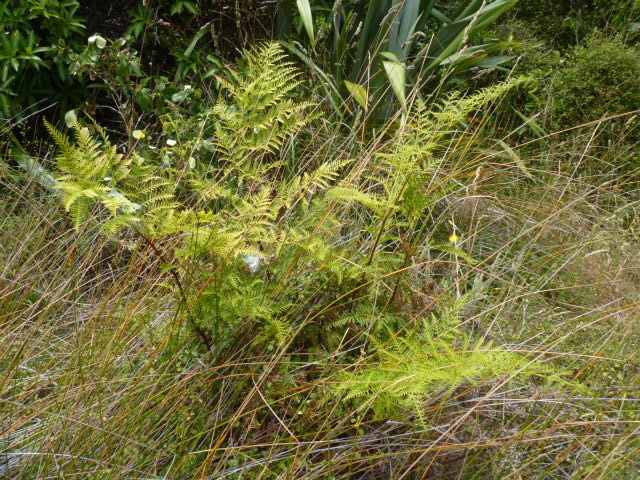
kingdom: Plantae
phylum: Tracheophyta
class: Polypodiopsida
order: Polypodiales
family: Pteridaceae
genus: Pteris
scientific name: Pteris tremula
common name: Australian brake
